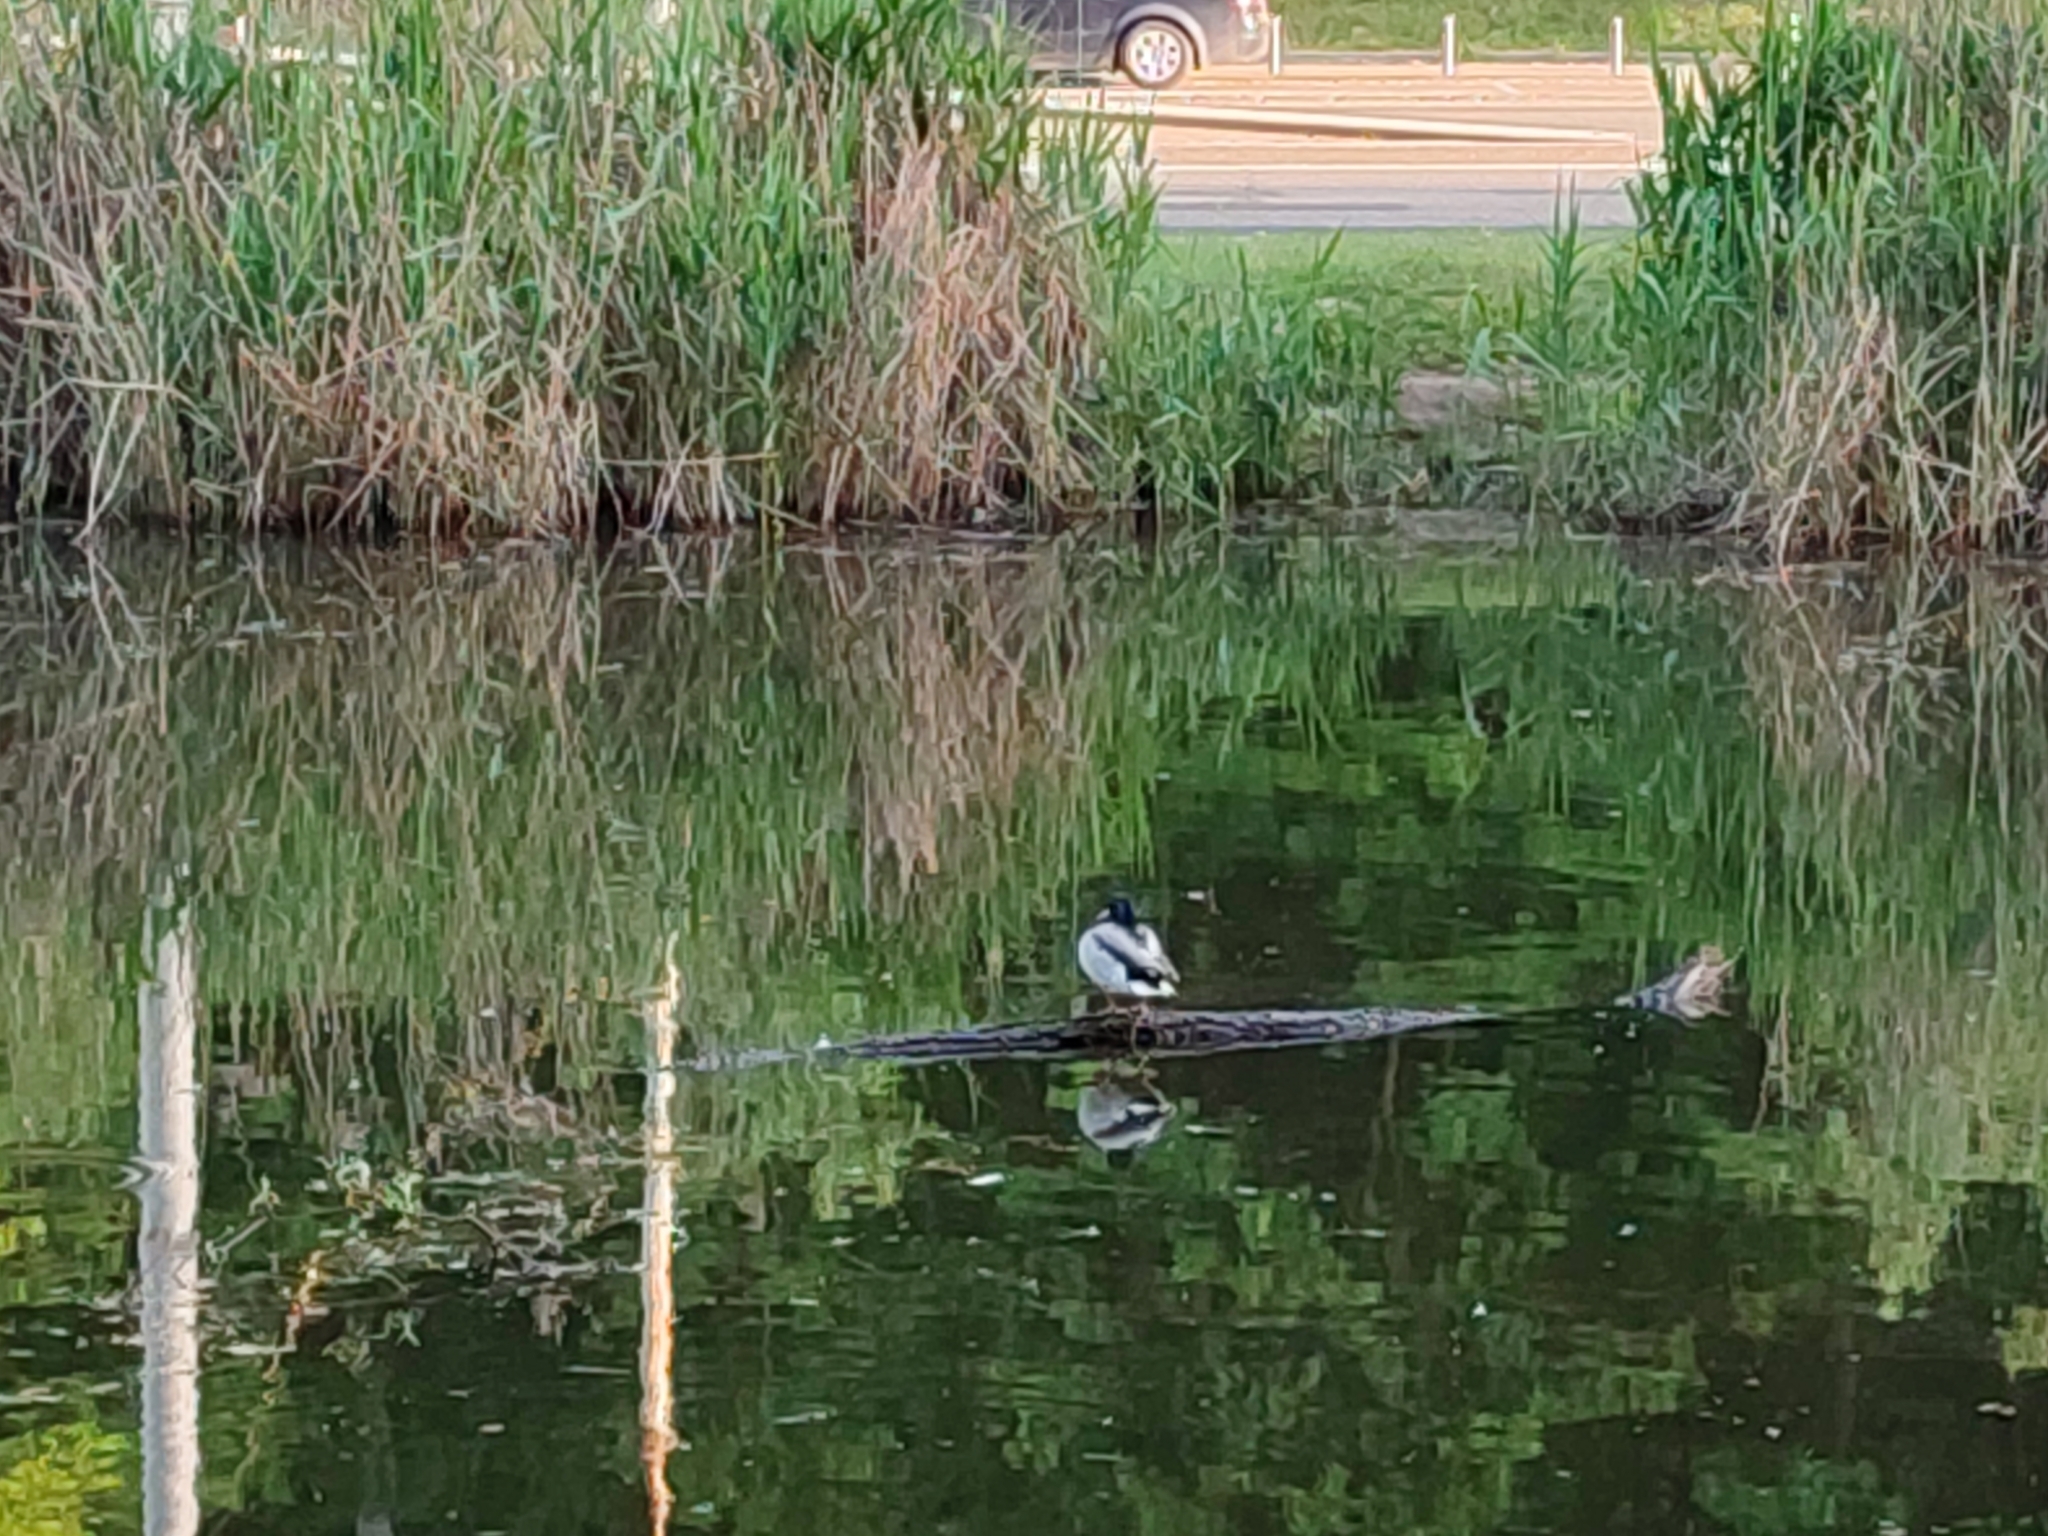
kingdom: Animalia
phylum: Chordata
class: Aves
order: Anseriformes
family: Anatidae
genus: Anas
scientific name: Anas platyrhynchos
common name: Mallard
